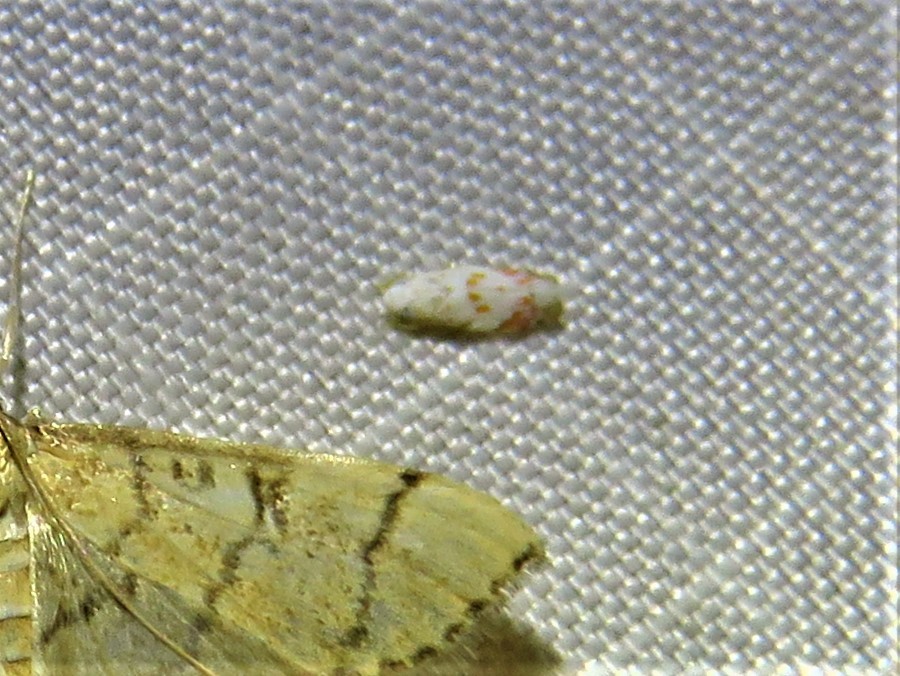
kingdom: Animalia
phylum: Arthropoda
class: Insecta
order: Hemiptera
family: Cicadellidae
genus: Eratoneura
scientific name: Eratoneura stephensoni
